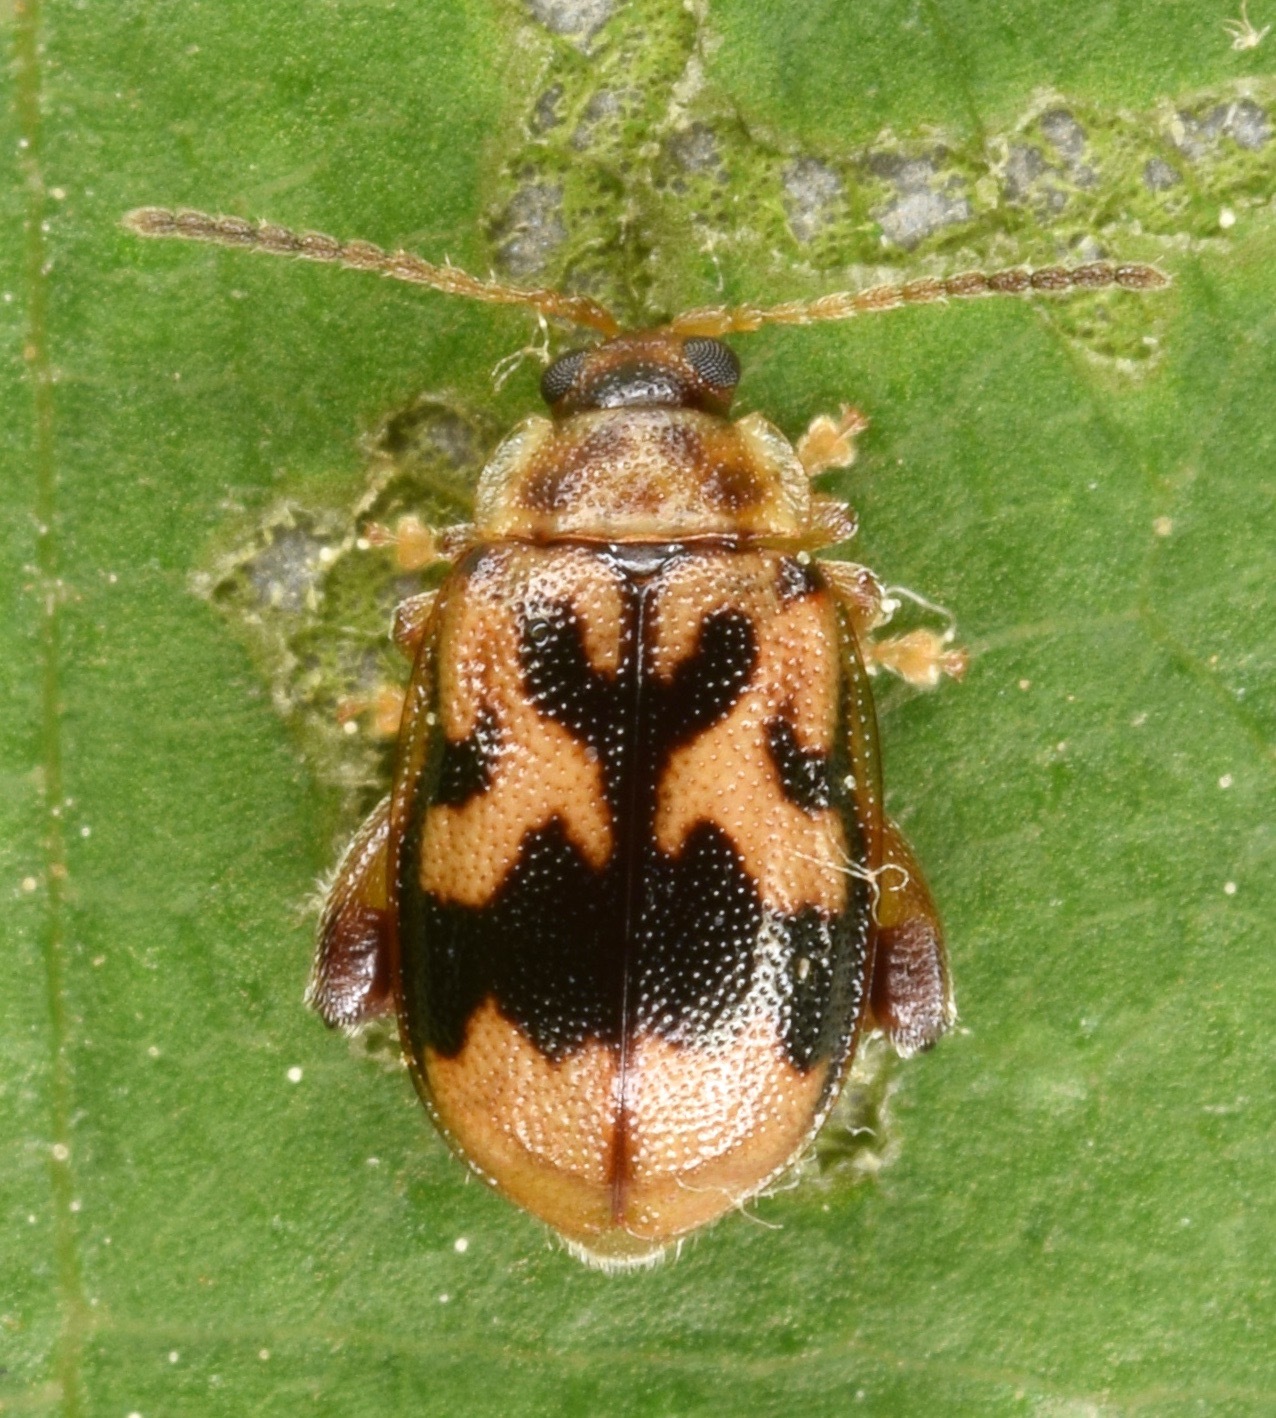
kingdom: Animalia
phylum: Arthropoda
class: Insecta
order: Coleoptera
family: Chrysomelidae
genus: Capraita
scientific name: Capraita sexmaculata
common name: Charlie brown flea beetle
